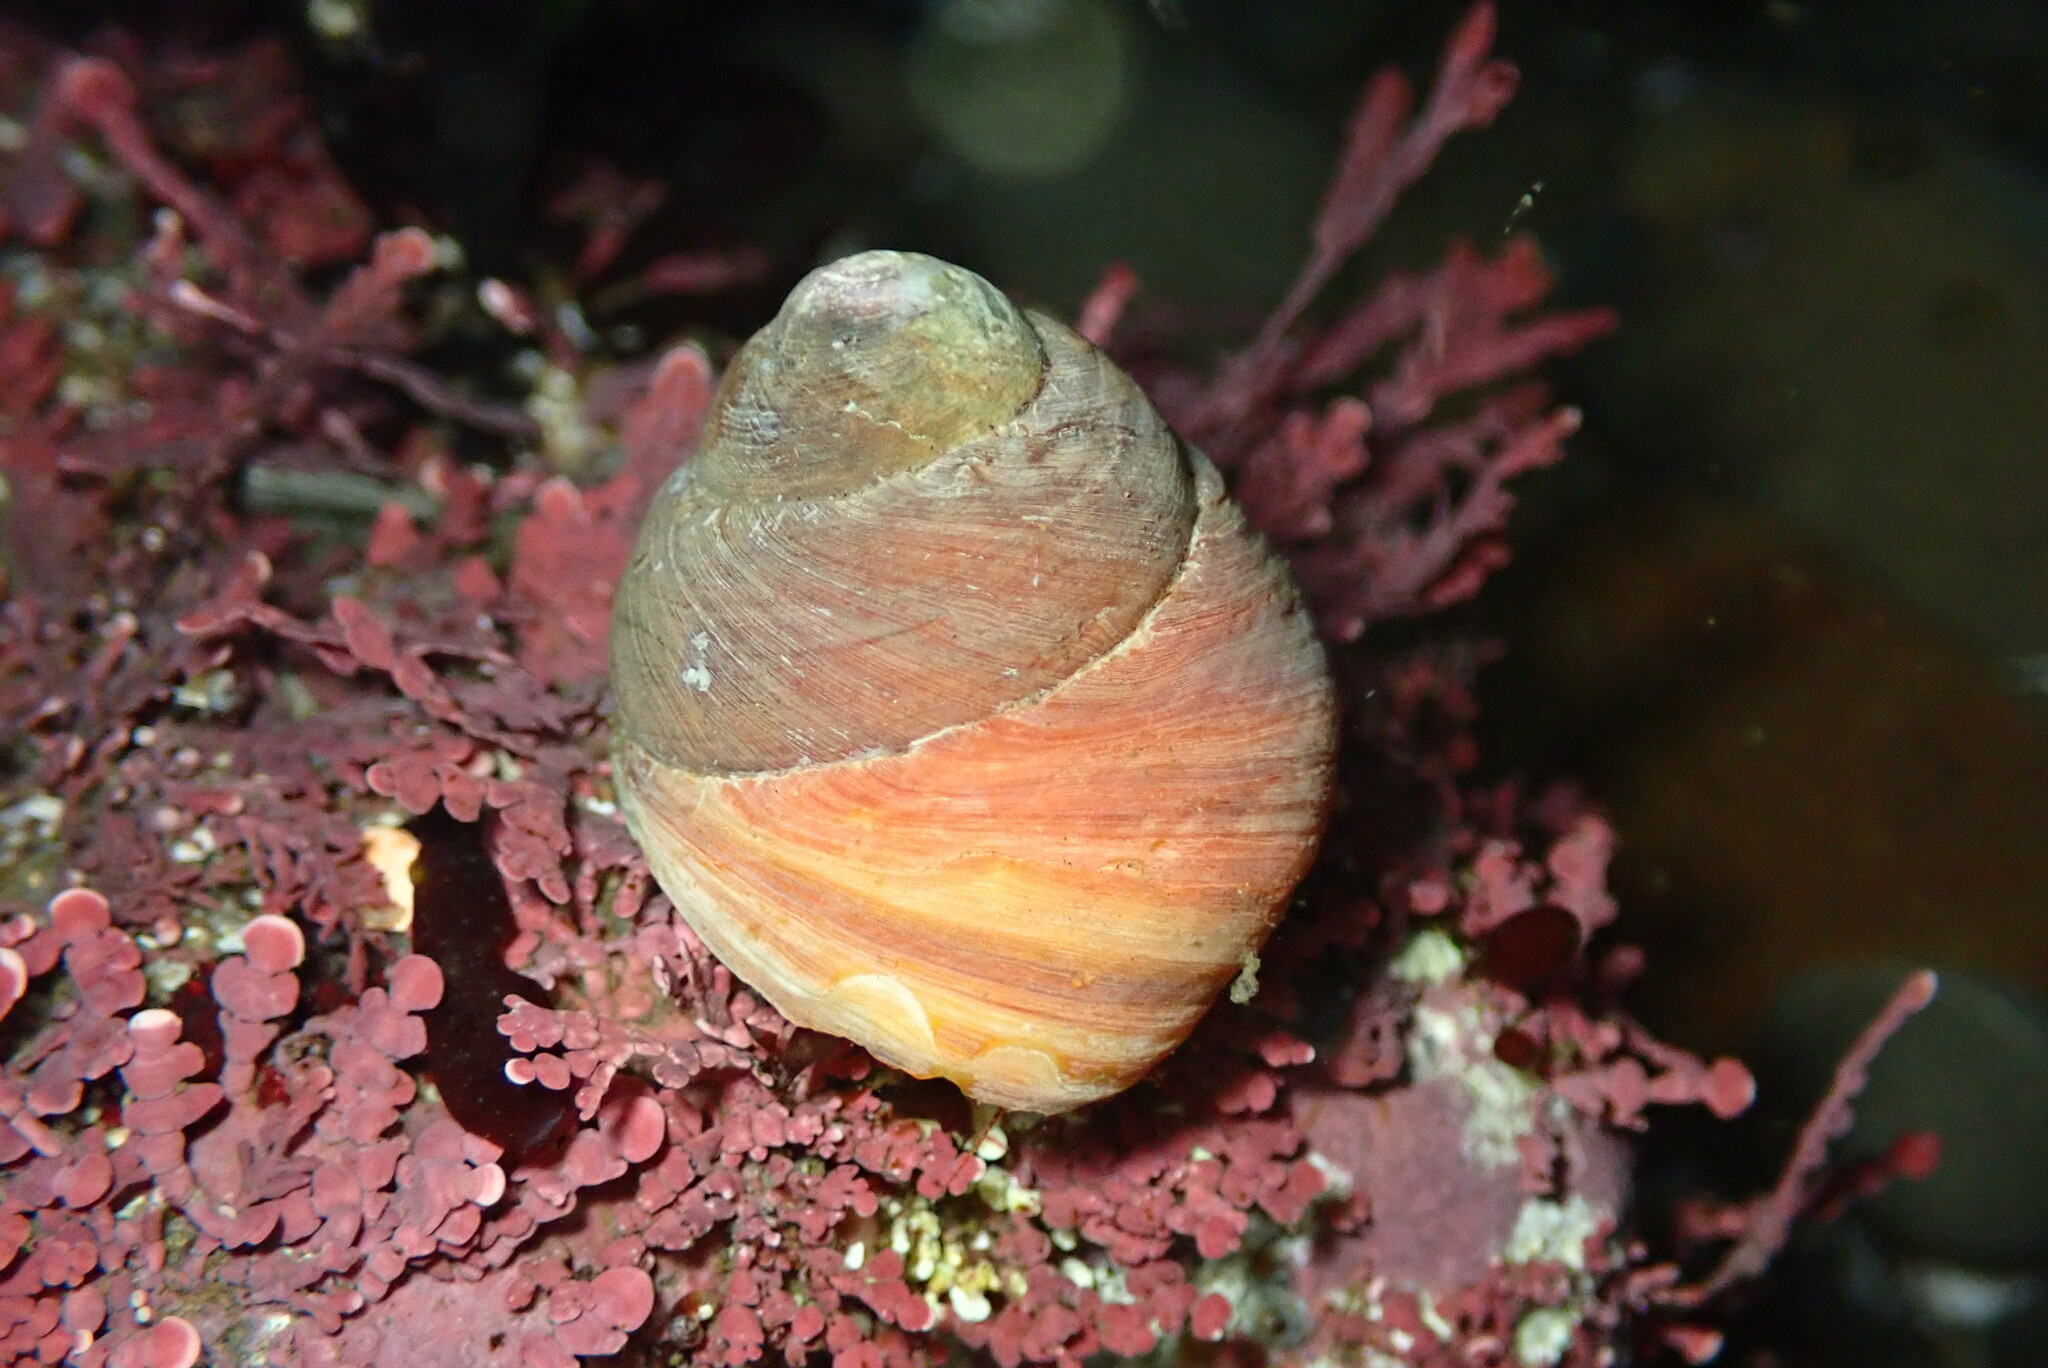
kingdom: Animalia
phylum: Mollusca
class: Gastropoda
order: Trochida
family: Tegulidae
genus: Tegula
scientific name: Tegula brunnea
